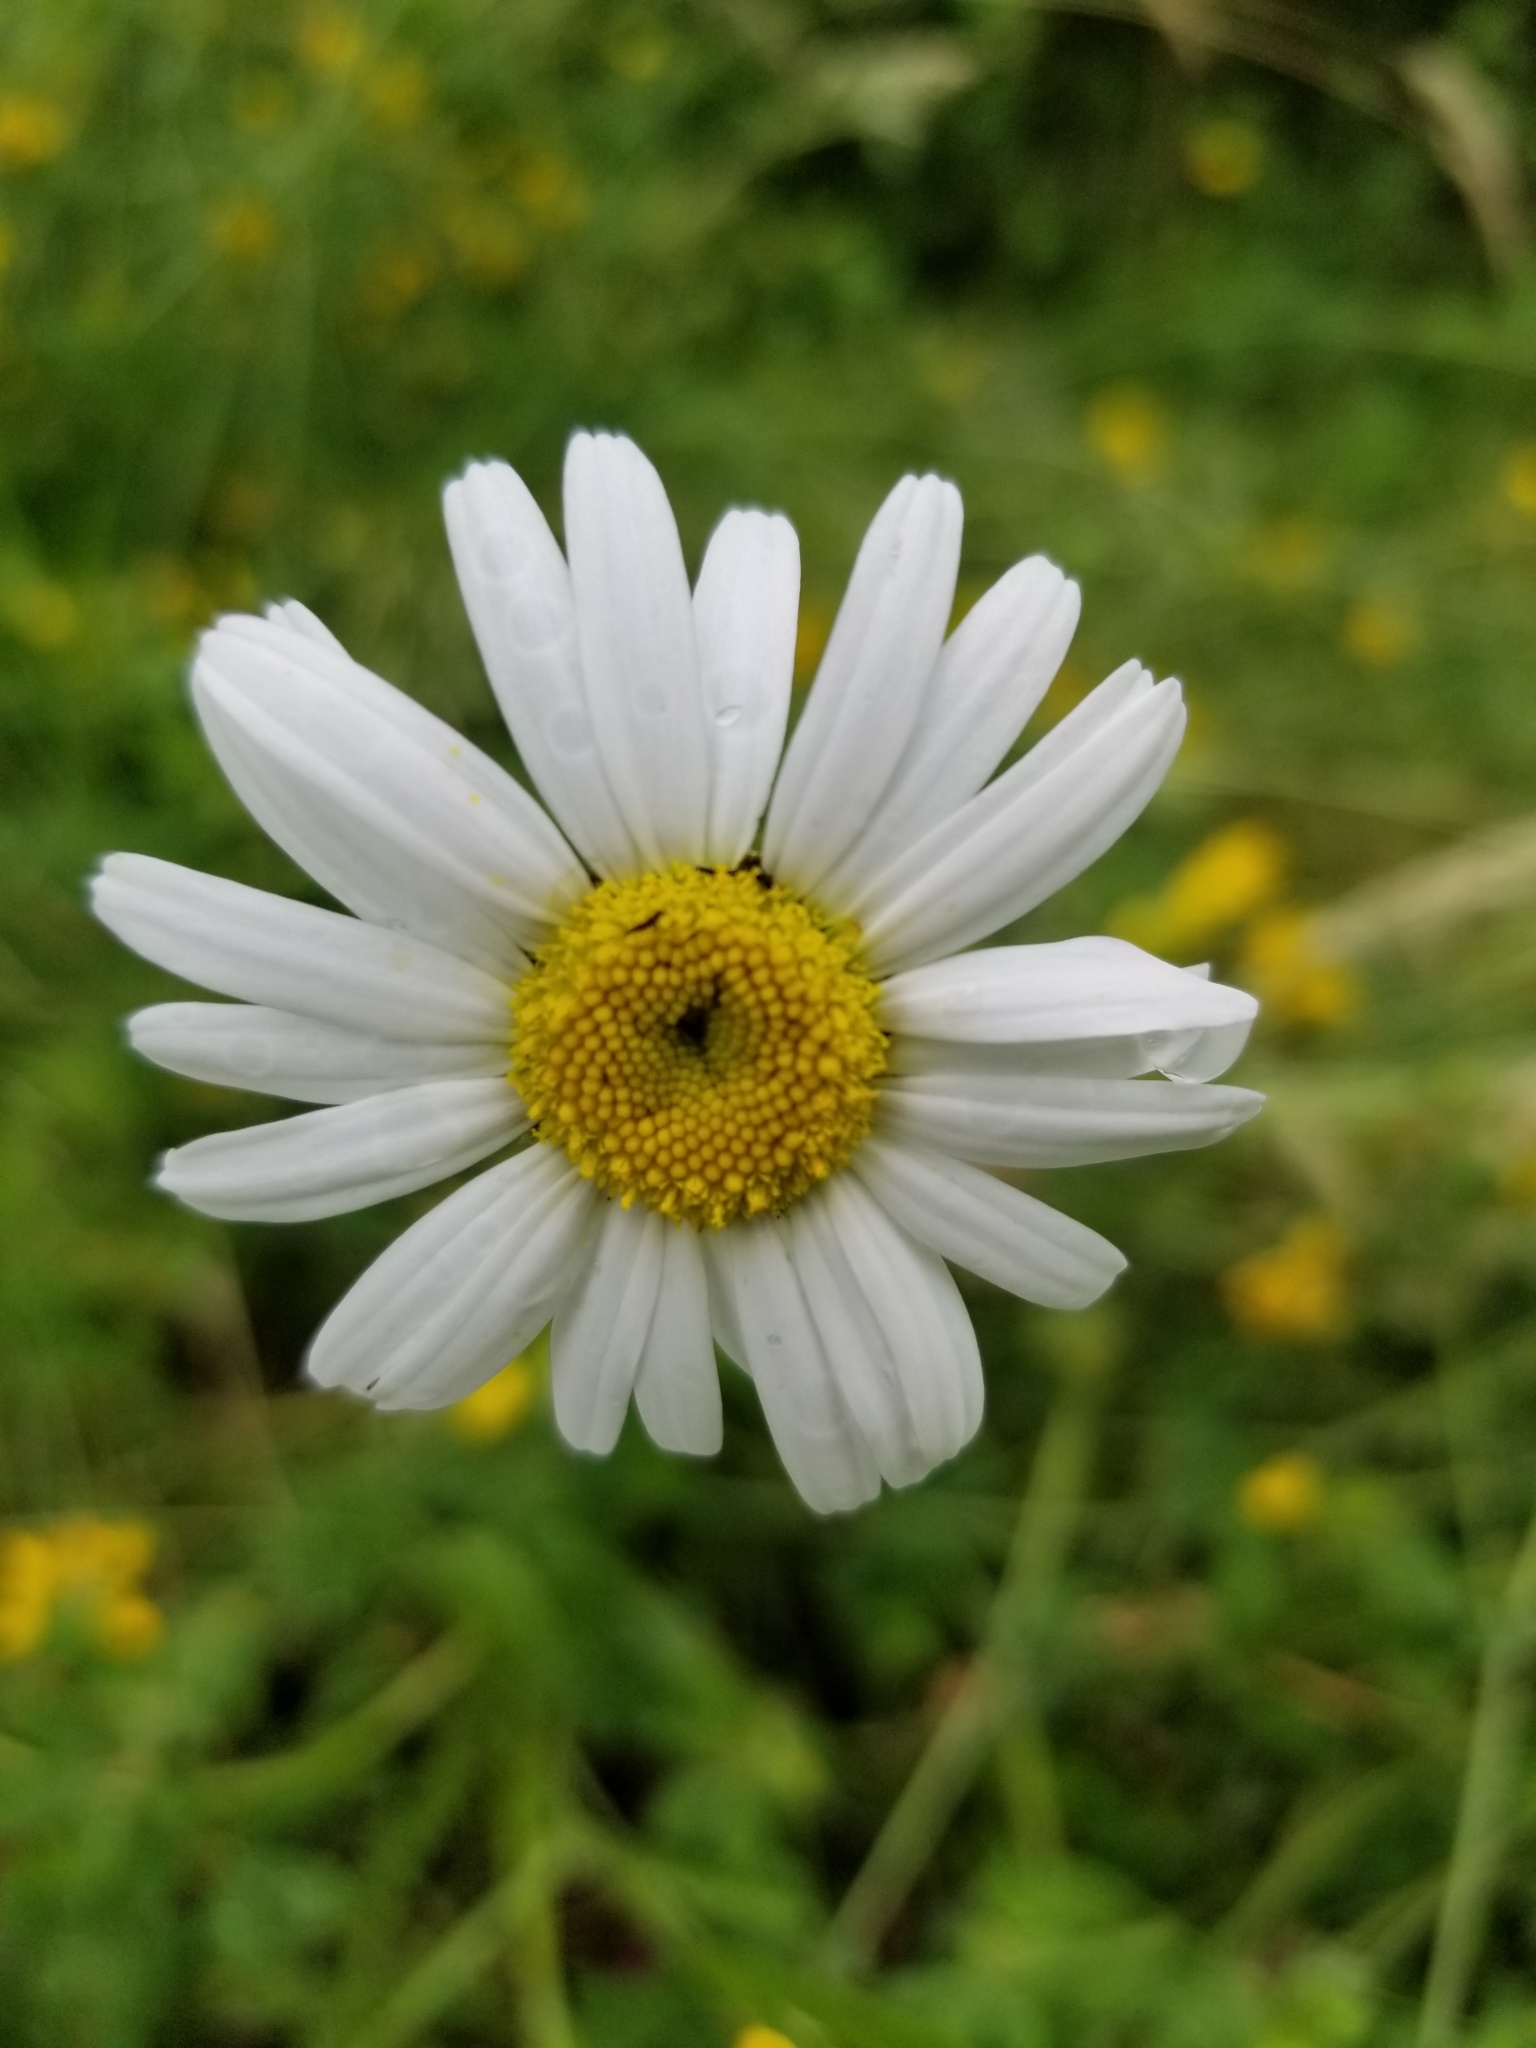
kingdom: Plantae
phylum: Tracheophyta
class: Magnoliopsida
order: Asterales
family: Asteraceae
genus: Leucanthemum
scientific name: Leucanthemum vulgare
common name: Oxeye daisy
